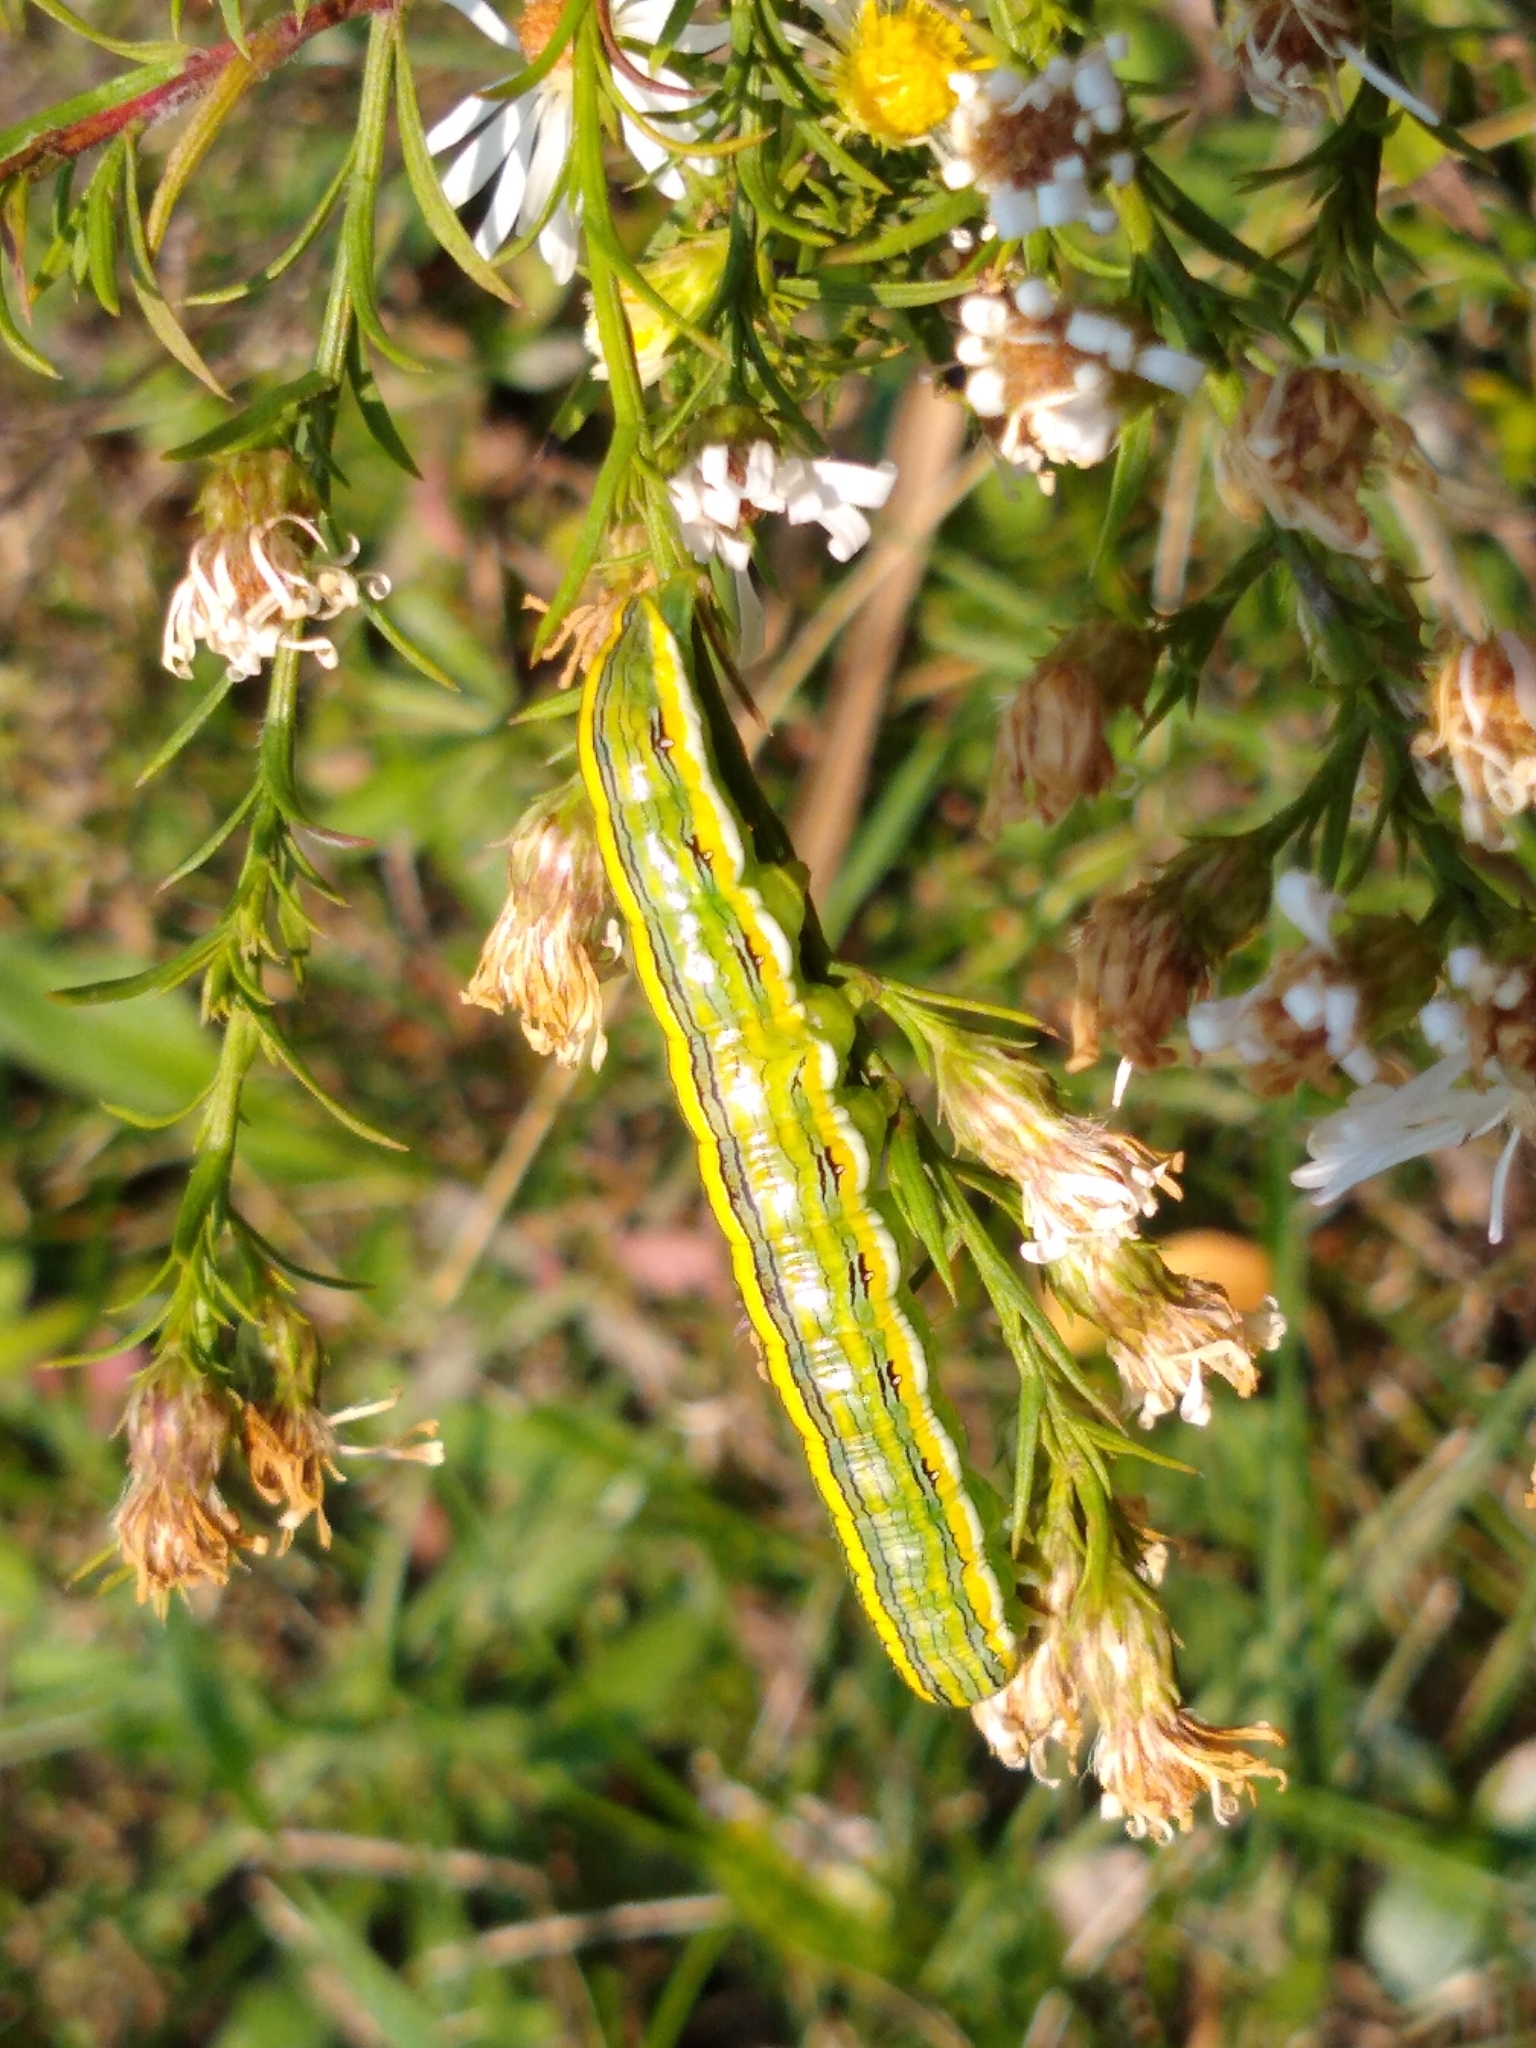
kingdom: Animalia
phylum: Arthropoda
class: Insecta
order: Lepidoptera
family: Noctuidae
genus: Cucullia
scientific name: Cucullia asteroides
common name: Asteroid moth
